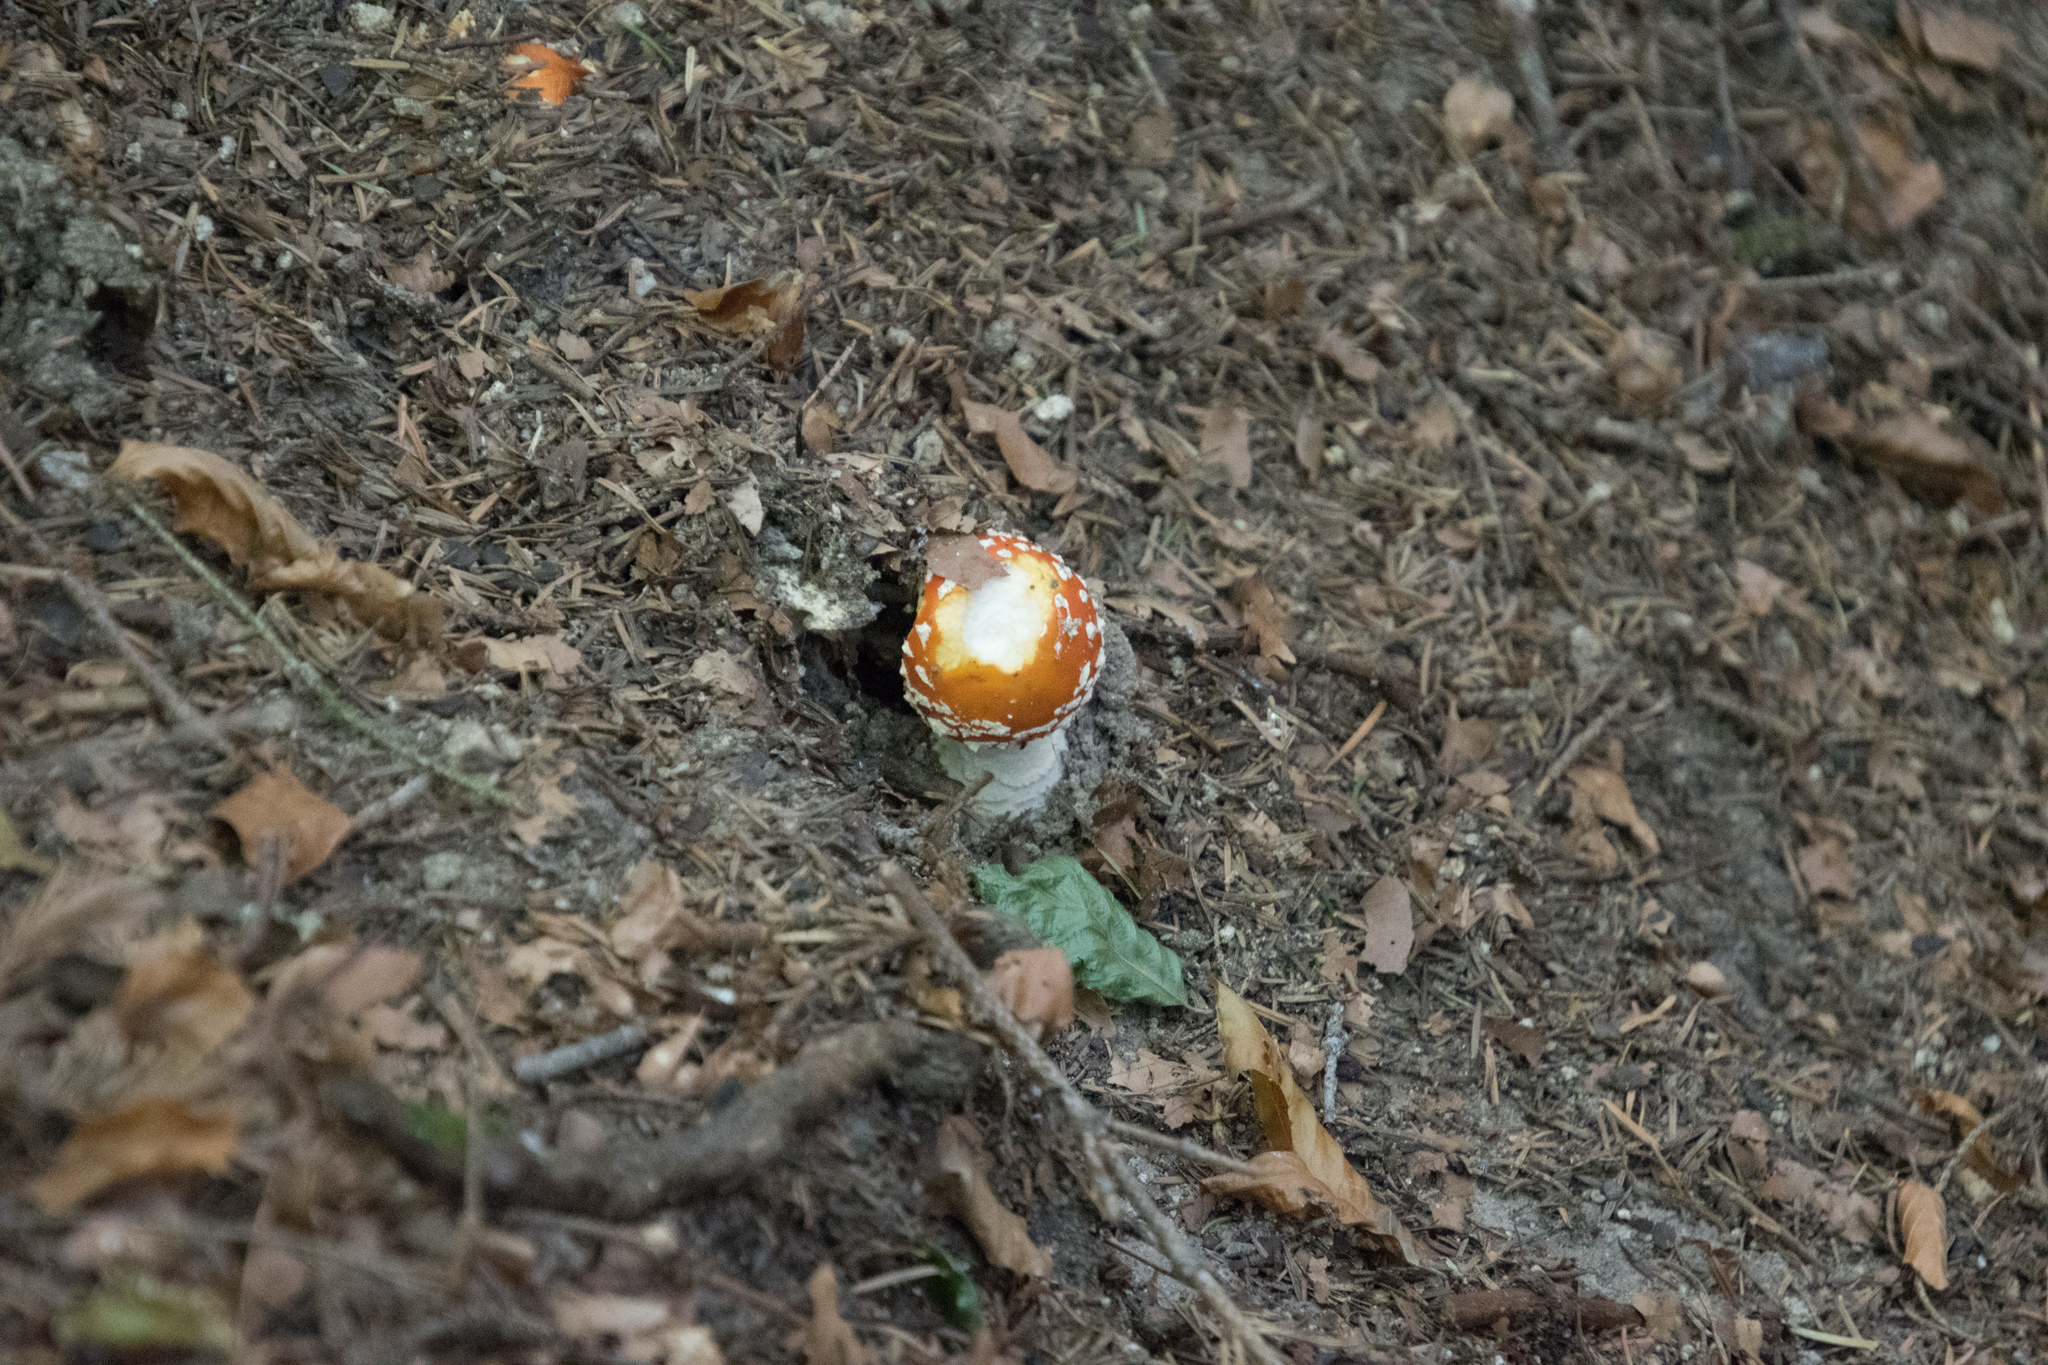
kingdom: Fungi
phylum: Basidiomycota
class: Agaricomycetes
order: Agaricales
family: Amanitaceae
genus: Amanita
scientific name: Amanita muscaria
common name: Fly agaric
